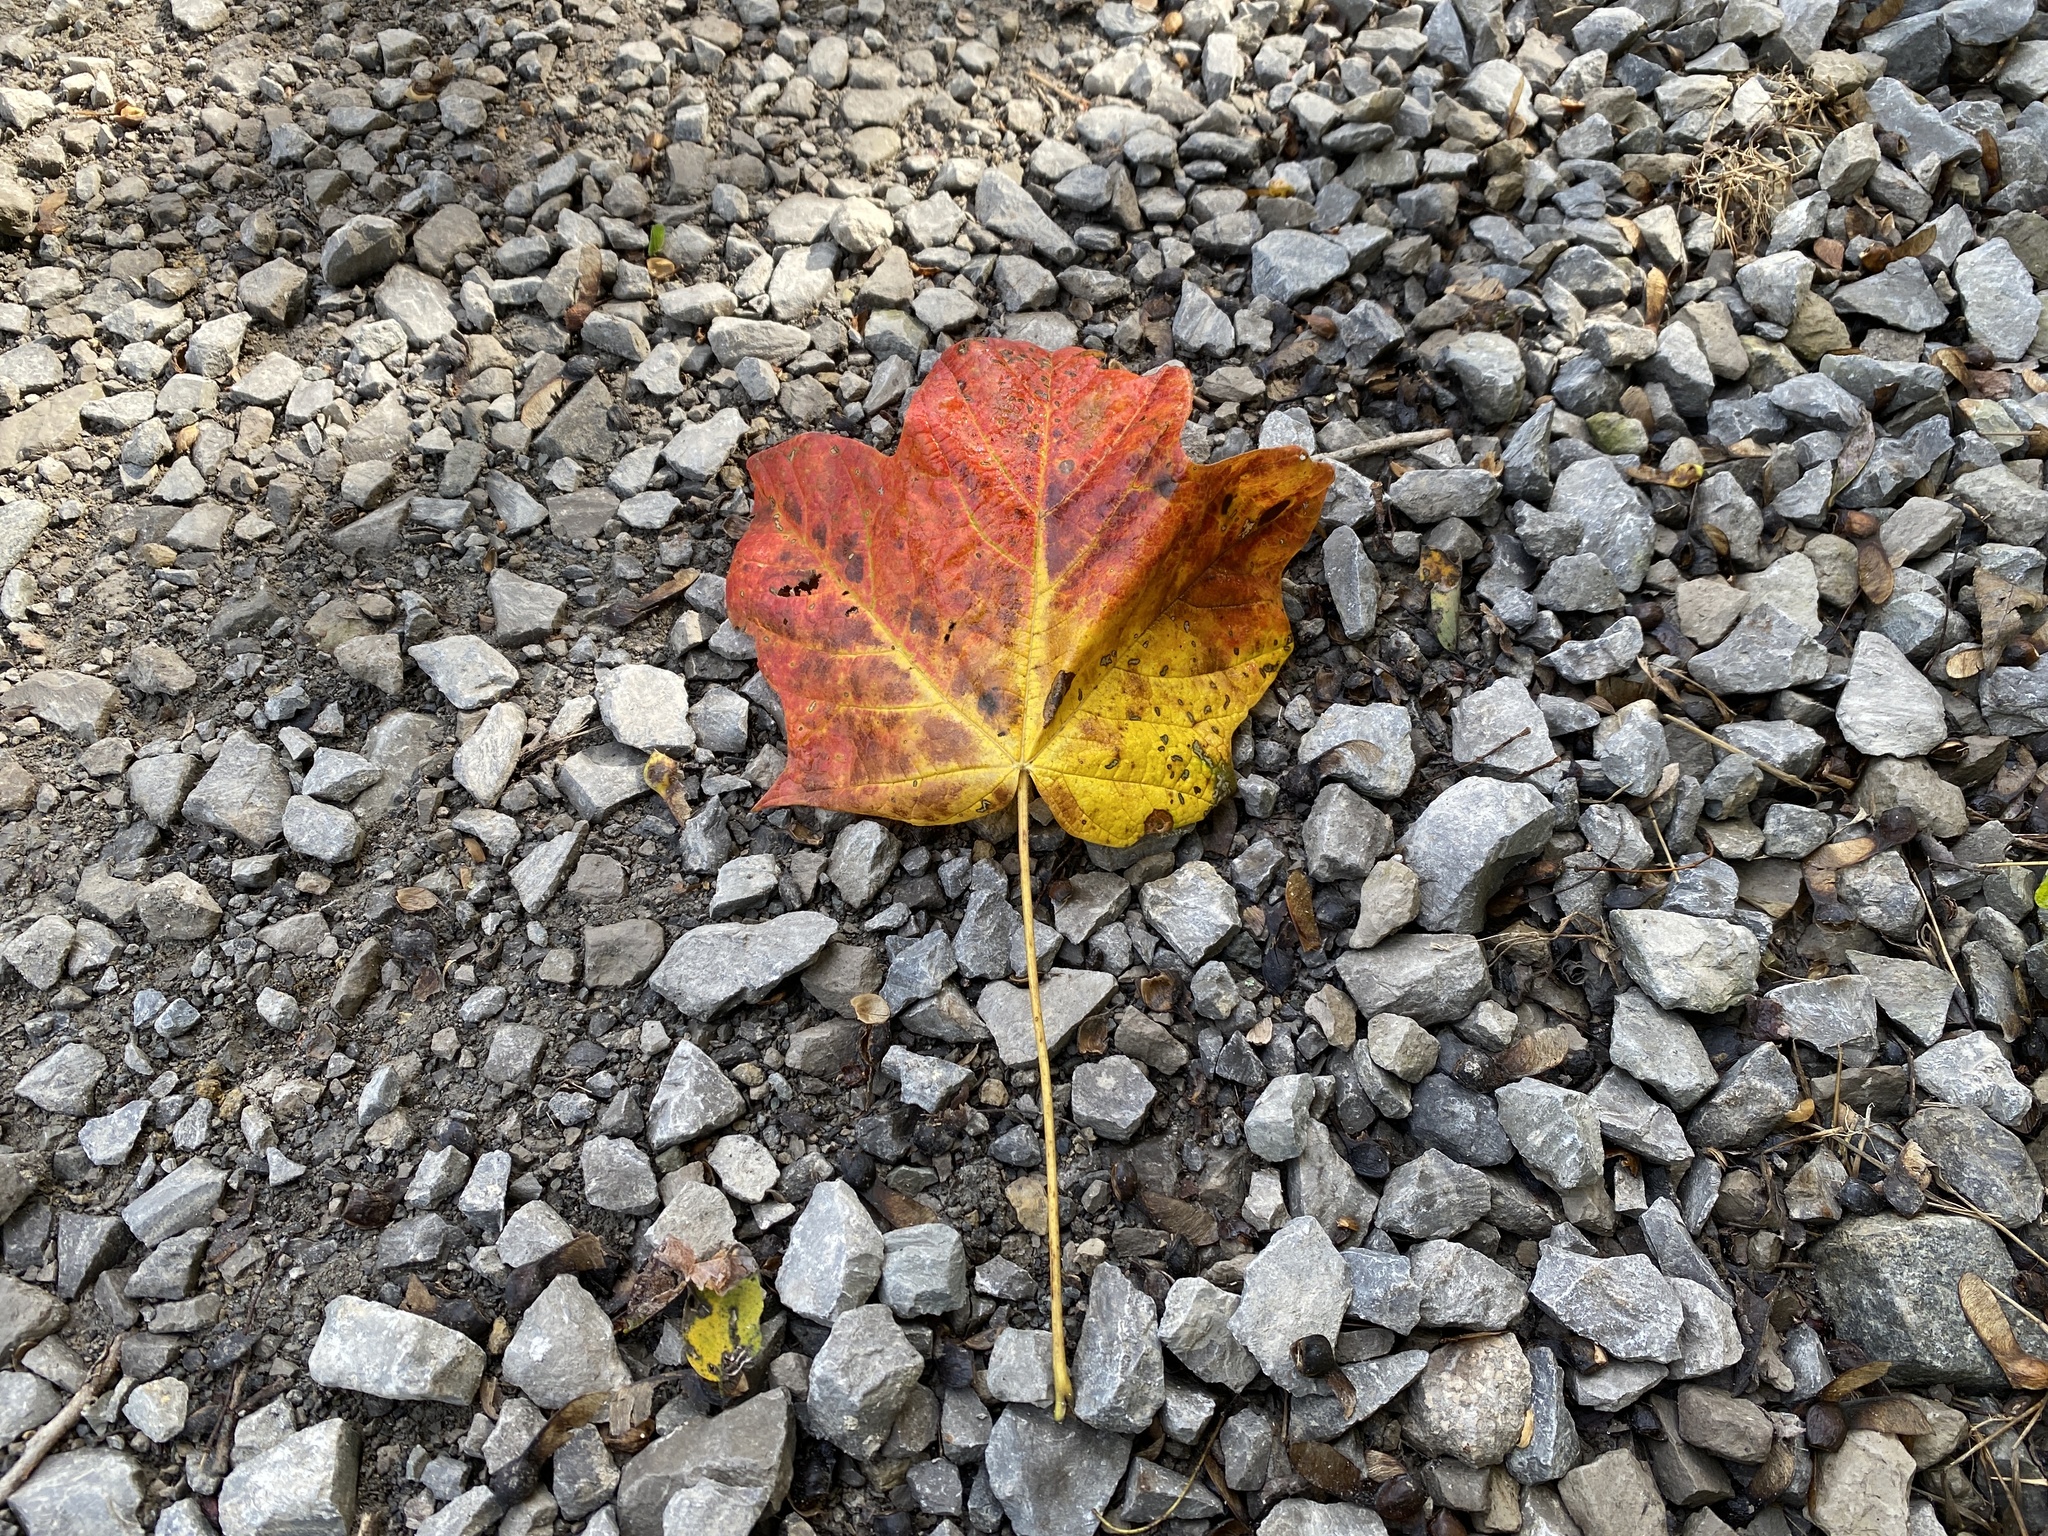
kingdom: Plantae
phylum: Tracheophyta
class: Magnoliopsida
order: Sapindales
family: Sapindaceae
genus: Acer
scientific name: Acer nigrum
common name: Black maple
